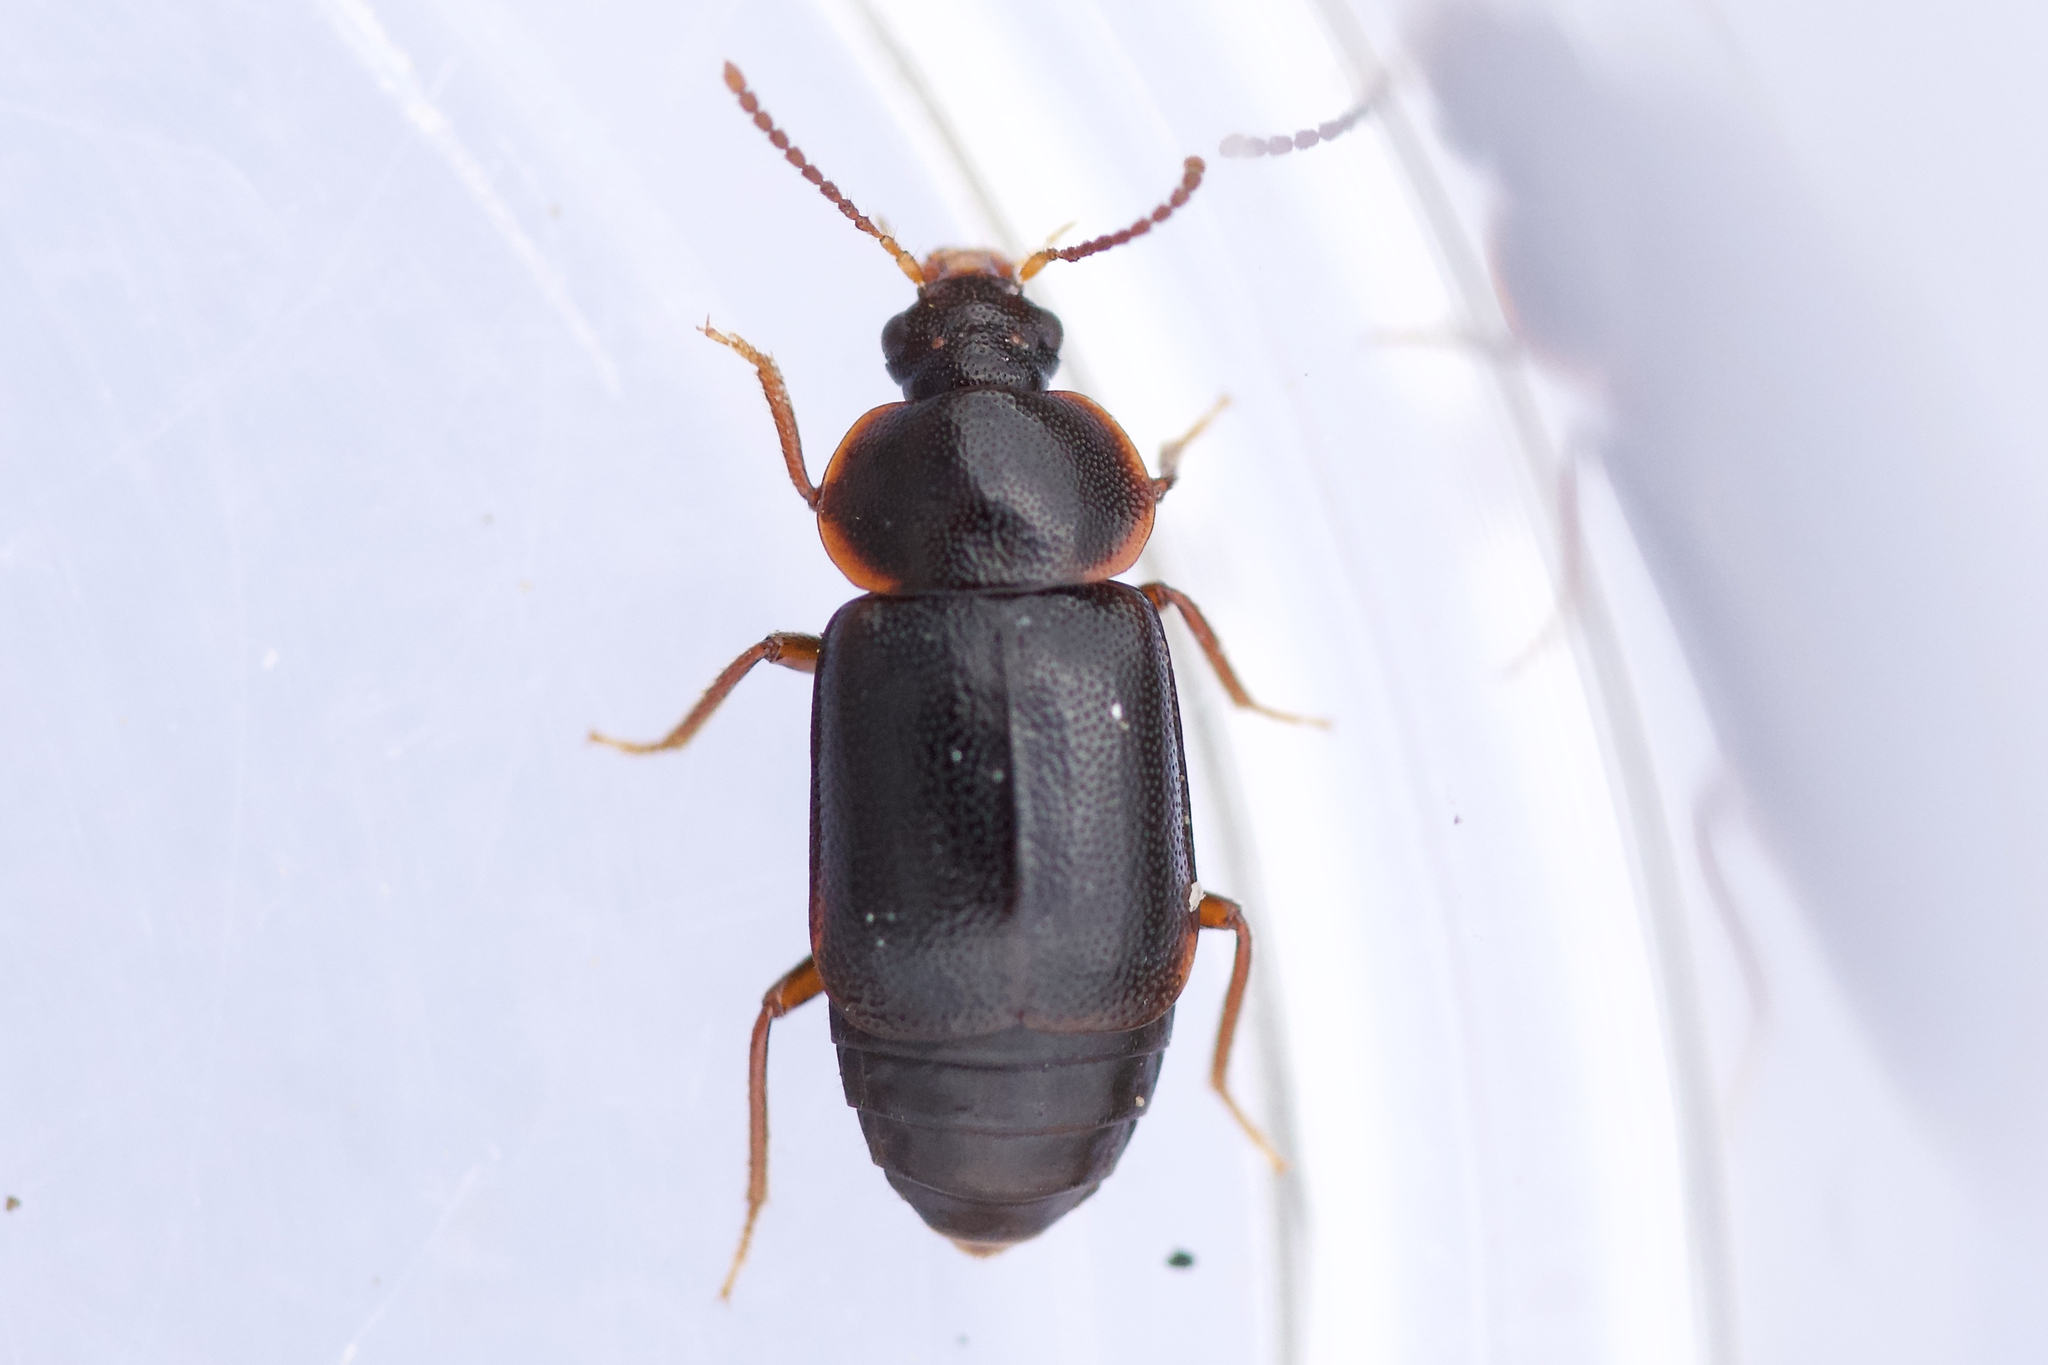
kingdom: Animalia
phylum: Arthropoda
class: Insecta
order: Coleoptera
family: Staphylinidae
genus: Olophrum
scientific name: Olophrum obtectum
